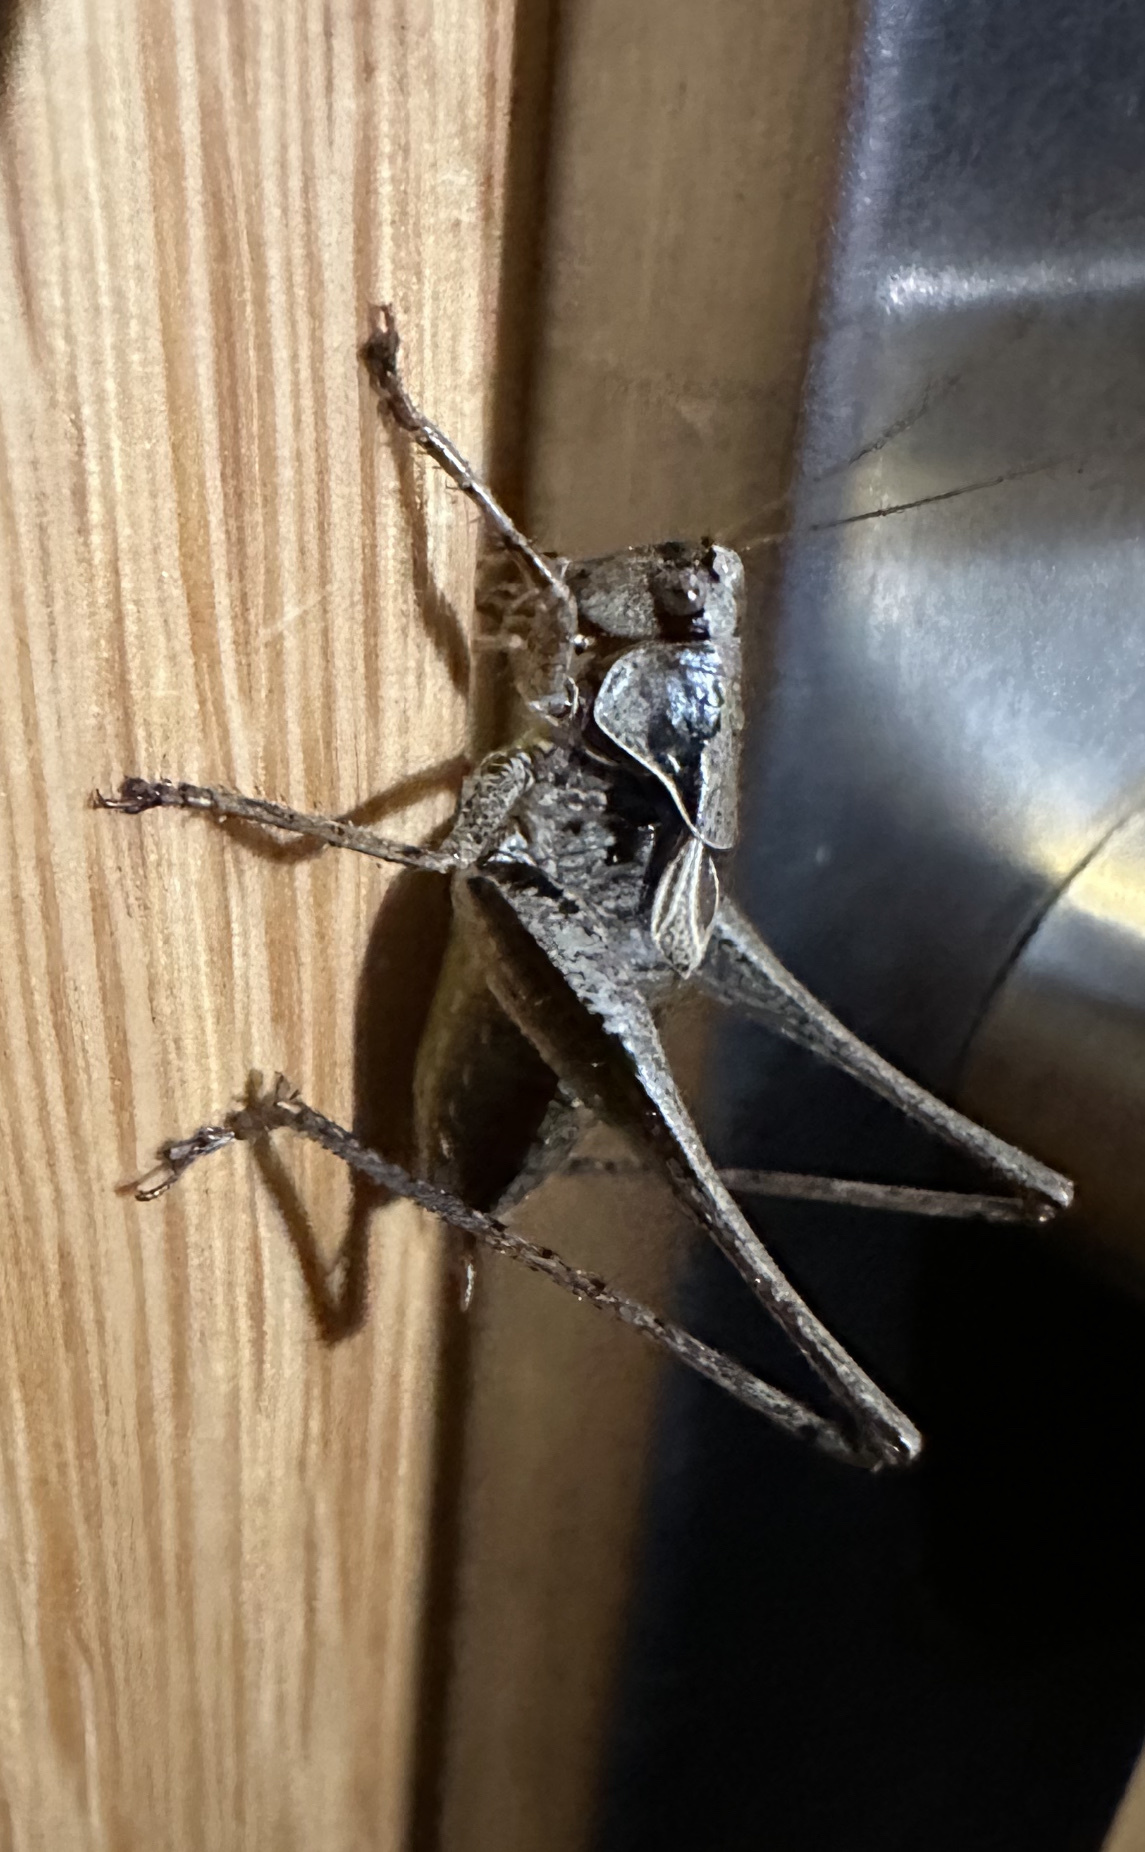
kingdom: Animalia
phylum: Arthropoda
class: Insecta
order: Orthoptera
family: Tettigoniidae
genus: Pholidoptera
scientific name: Pholidoptera griseoaptera
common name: Dark bush-cricket
